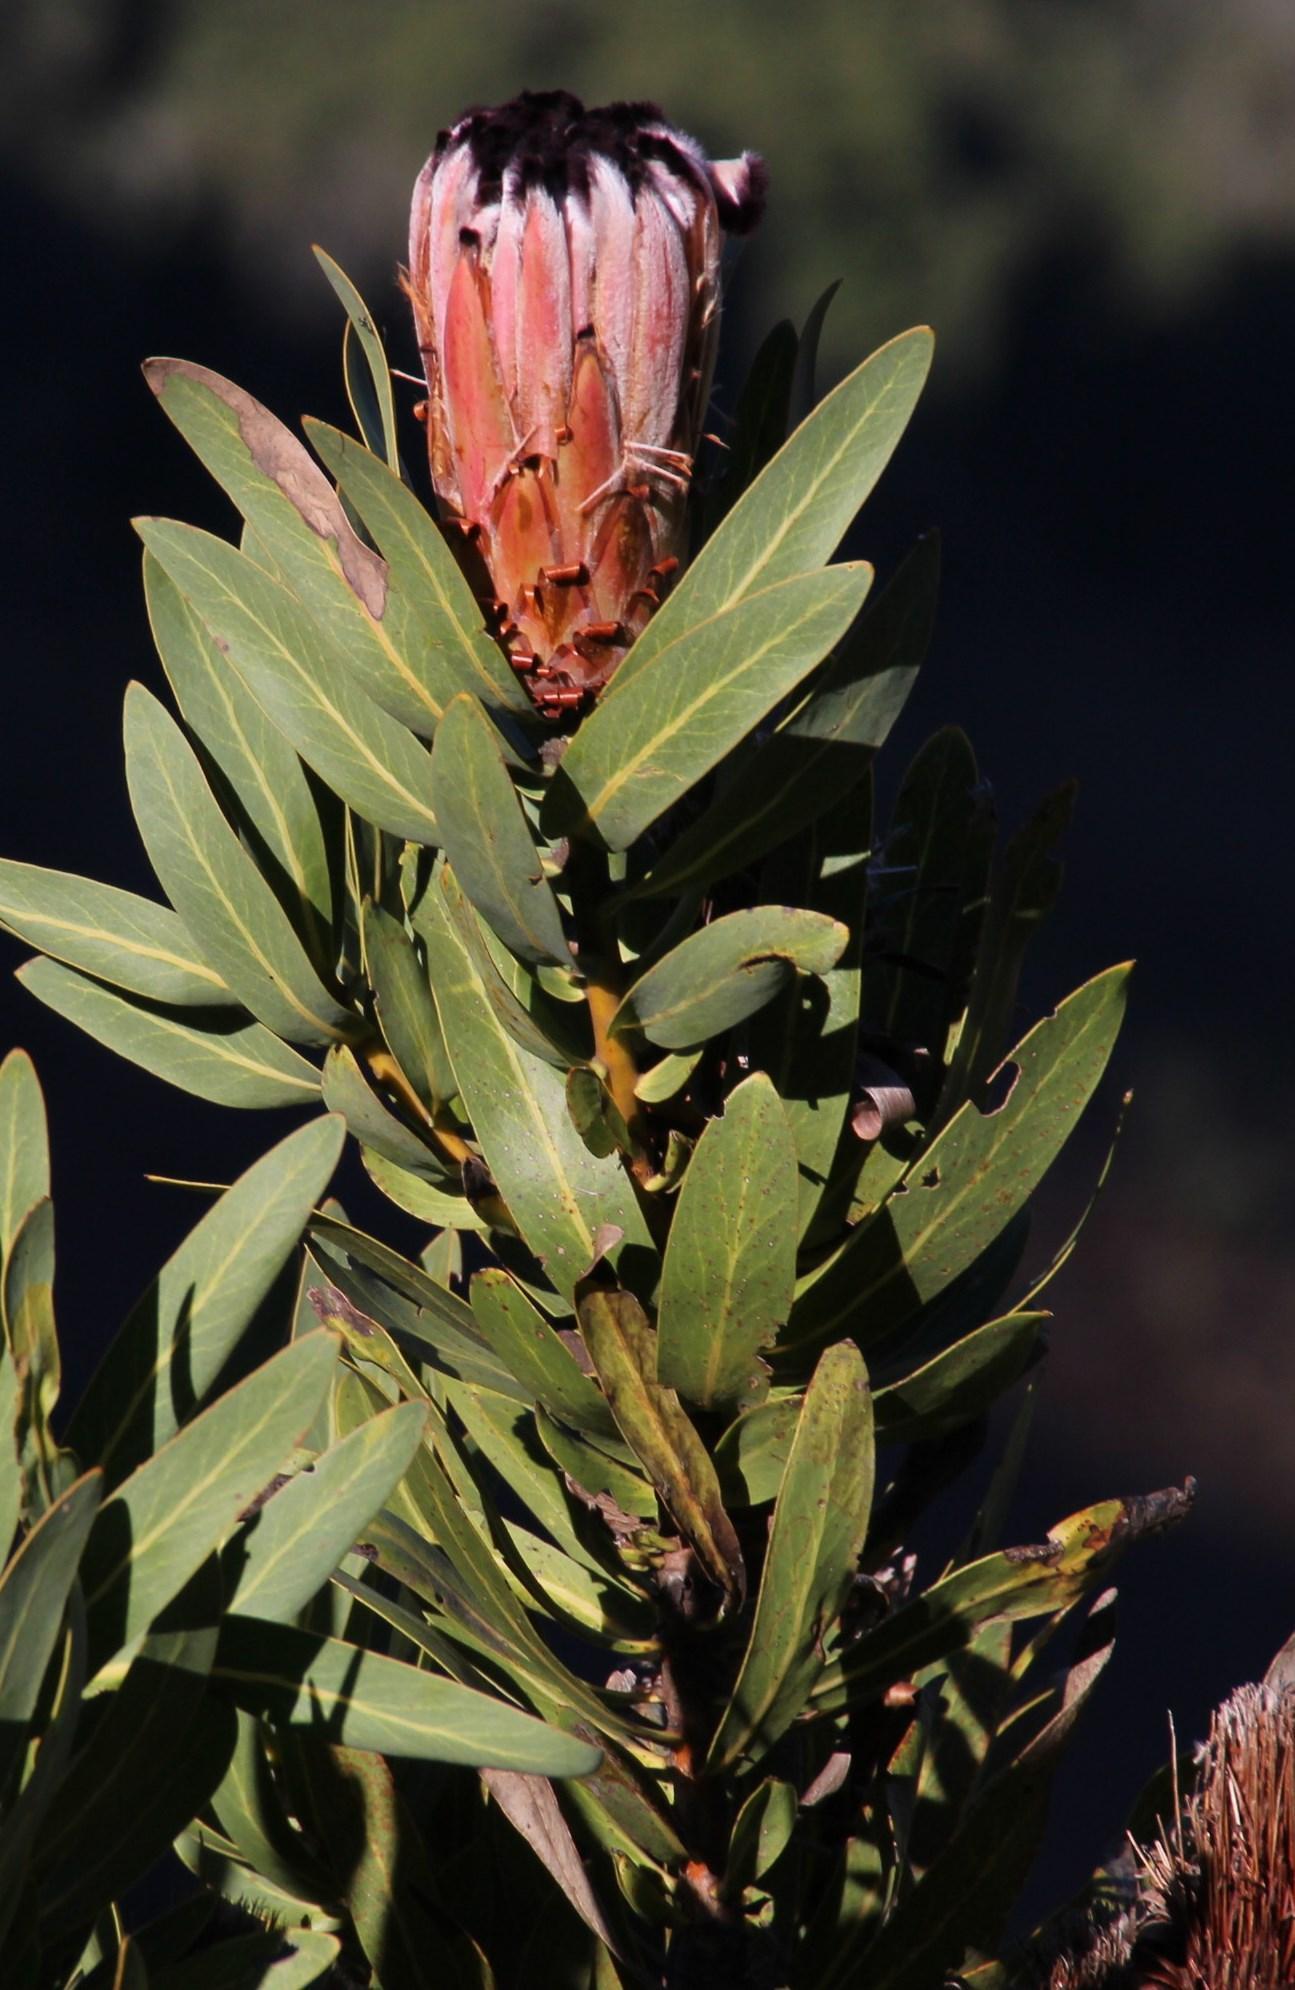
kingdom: Plantae
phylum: Tracheophyta
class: Magnoliopsida
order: Proteales
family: Proteaceae
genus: Protea
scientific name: Protea laurifolia
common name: Grey-leaf sugarbsh
